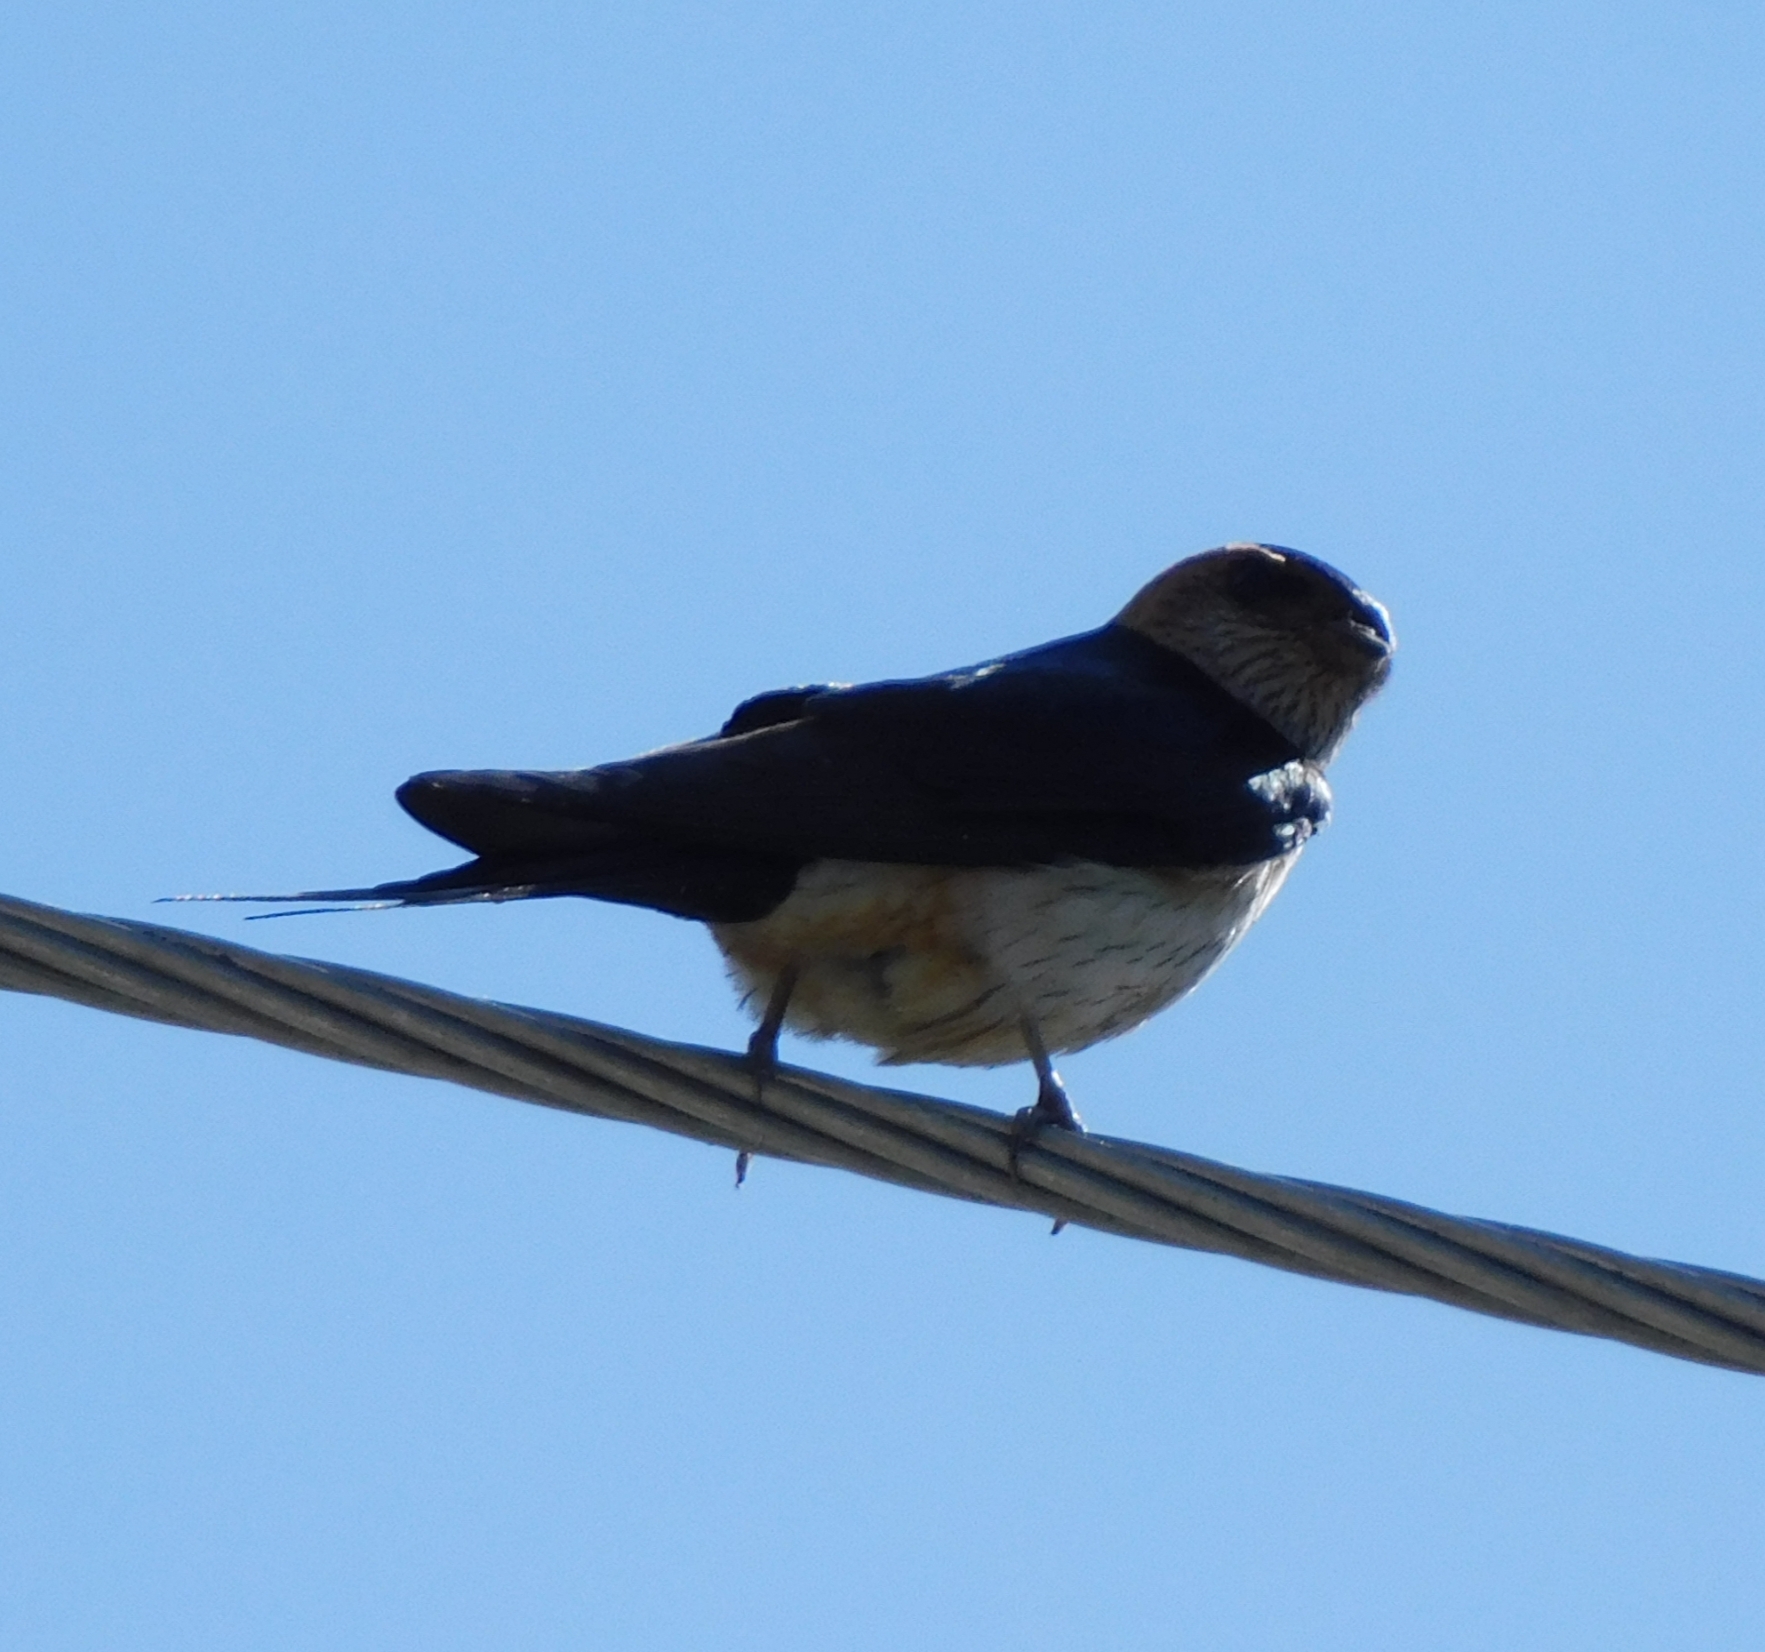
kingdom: Animalia
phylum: Chordata
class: Aves
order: Passeriformes
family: Hirundinidae
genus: Cecropis
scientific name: Cecropis daurica
